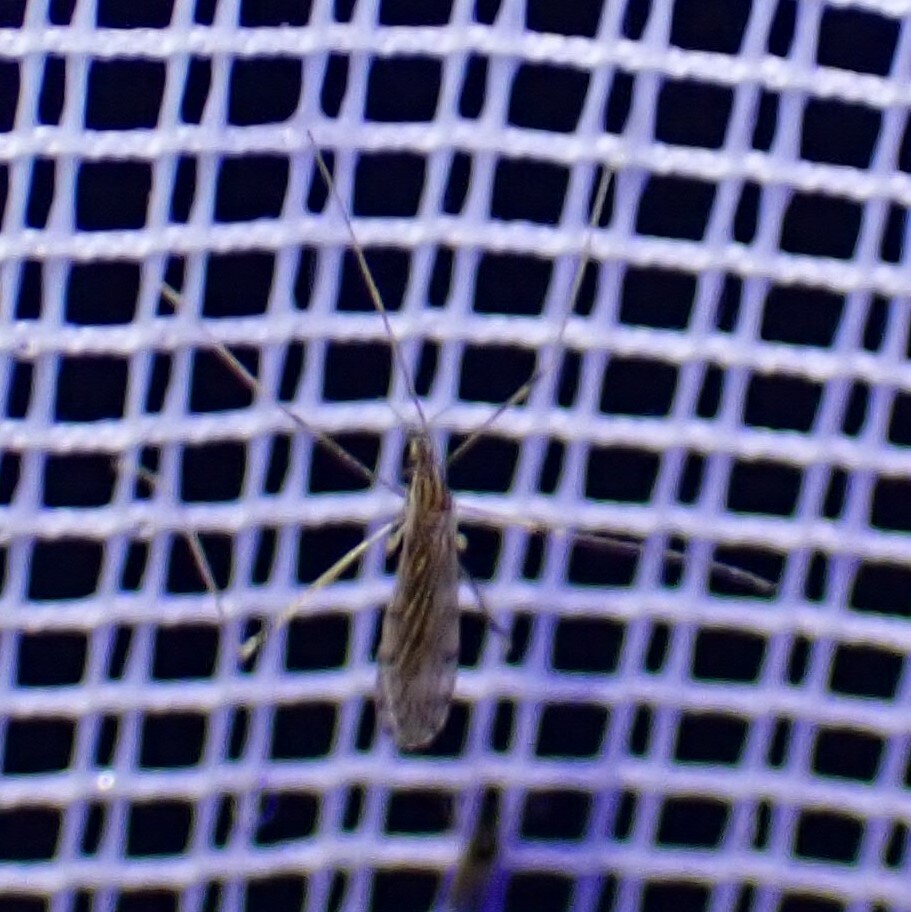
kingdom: Animalia
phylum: Arthropoda
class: Insecta
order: Diptera
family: Limoniidae
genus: Erioptera
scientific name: Erioptera parva
